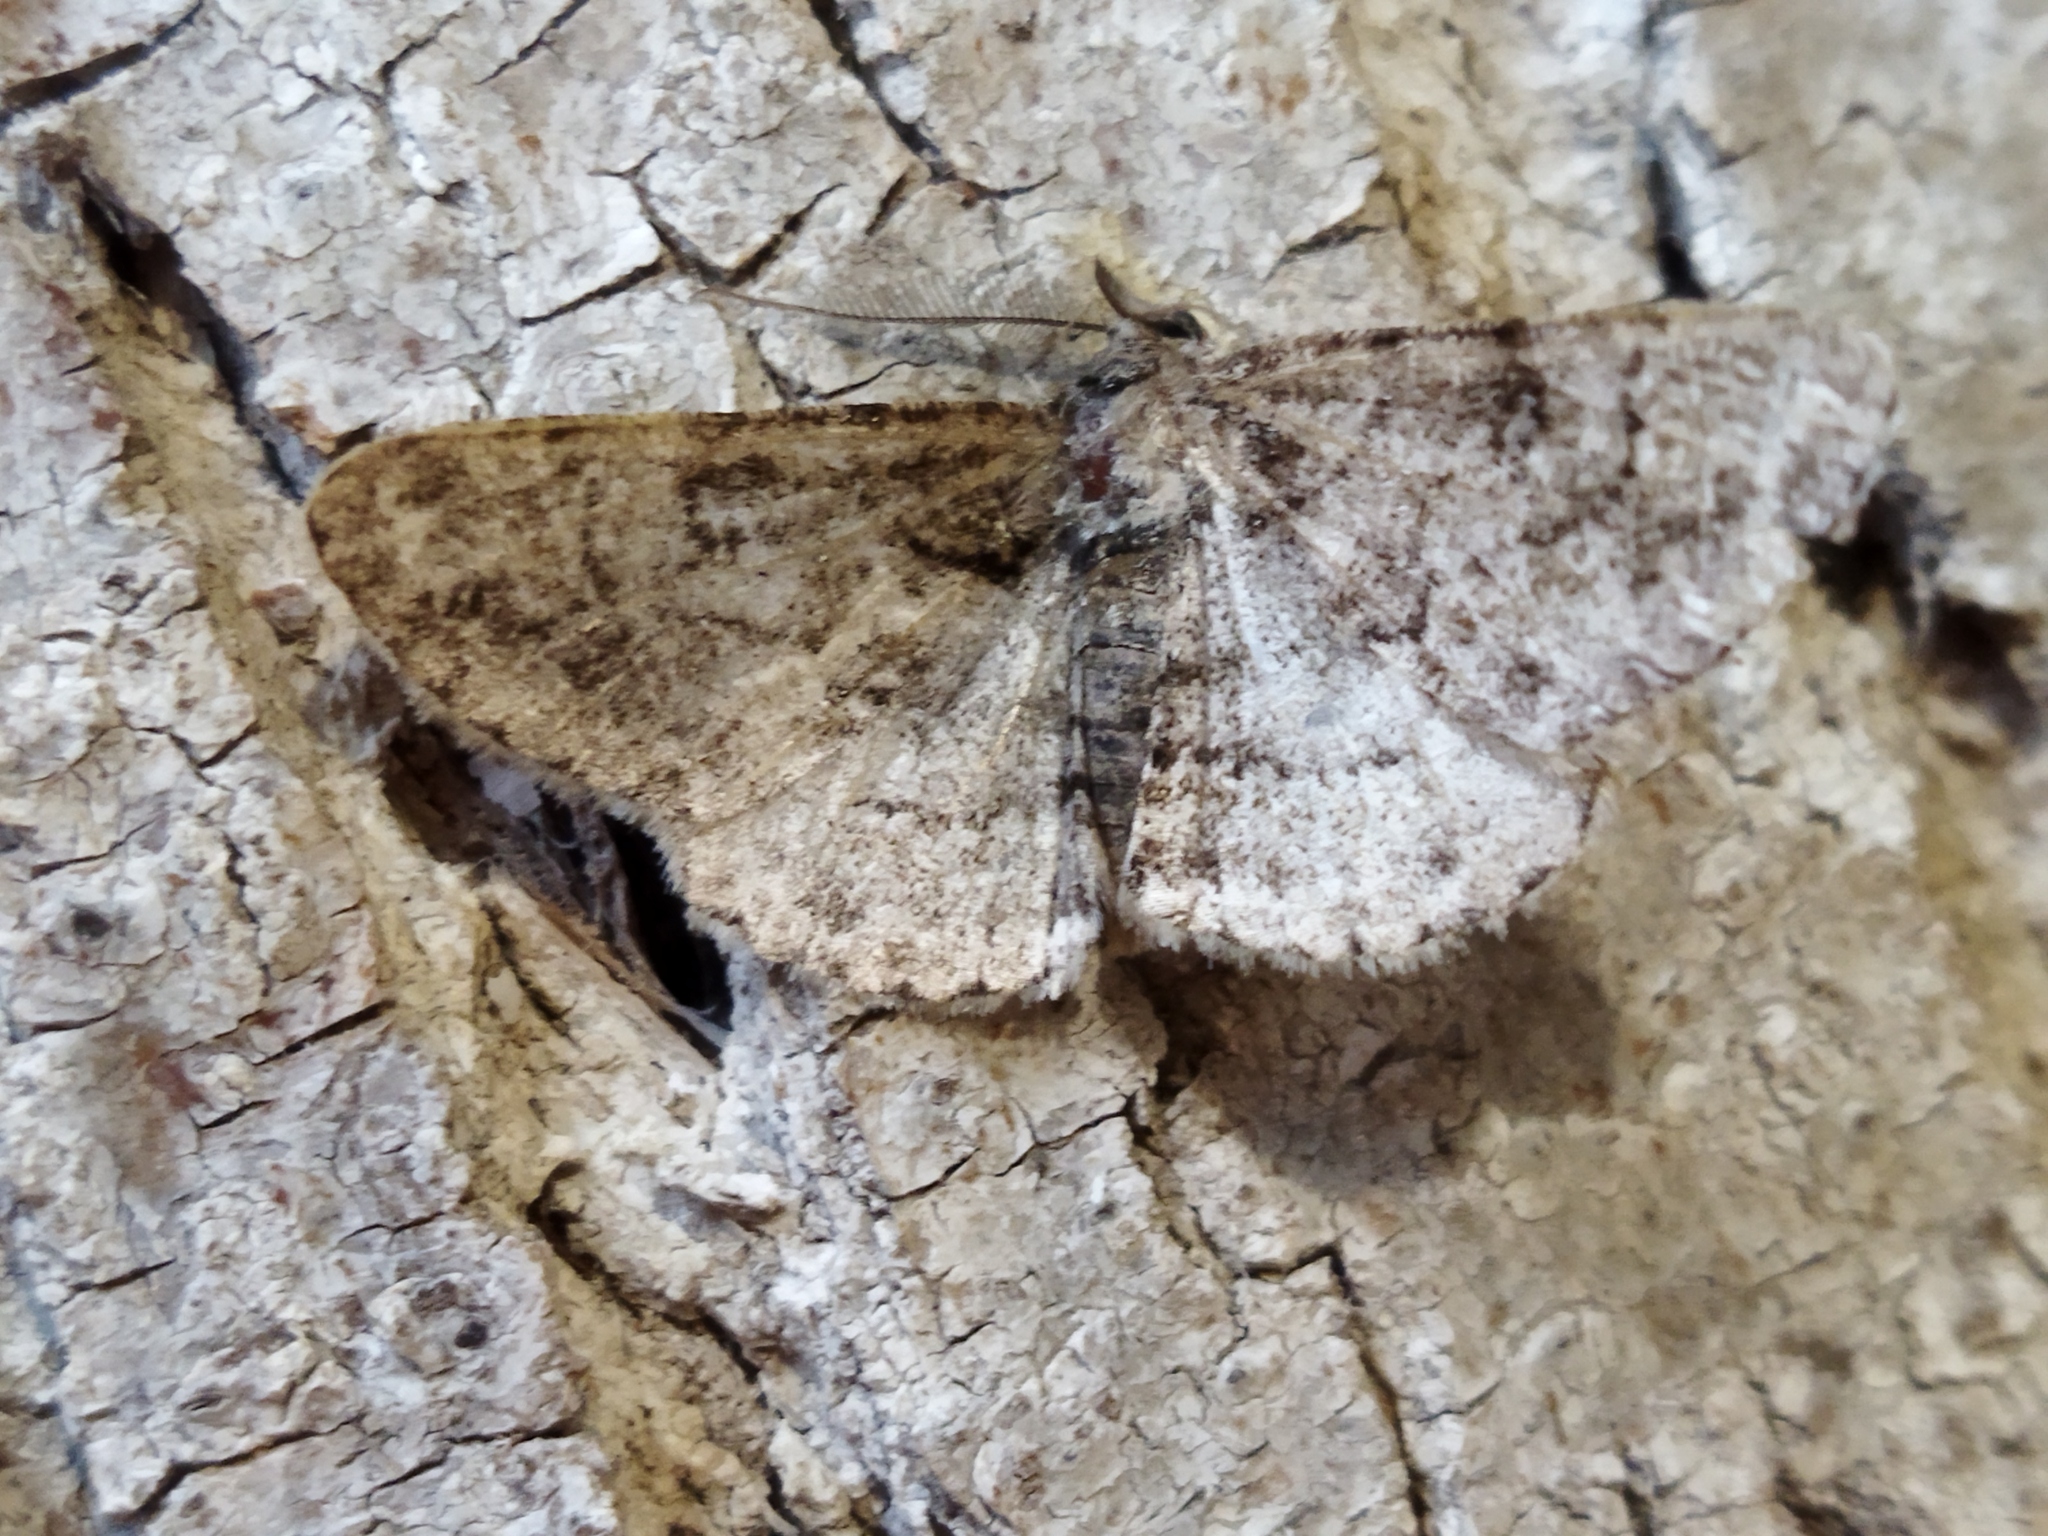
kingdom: Animalia
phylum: Arthropoda
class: Insecta
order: Lepidoptera
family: Geometridae
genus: Cleora
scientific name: Cleora cinctaria
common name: Ringed carpet
